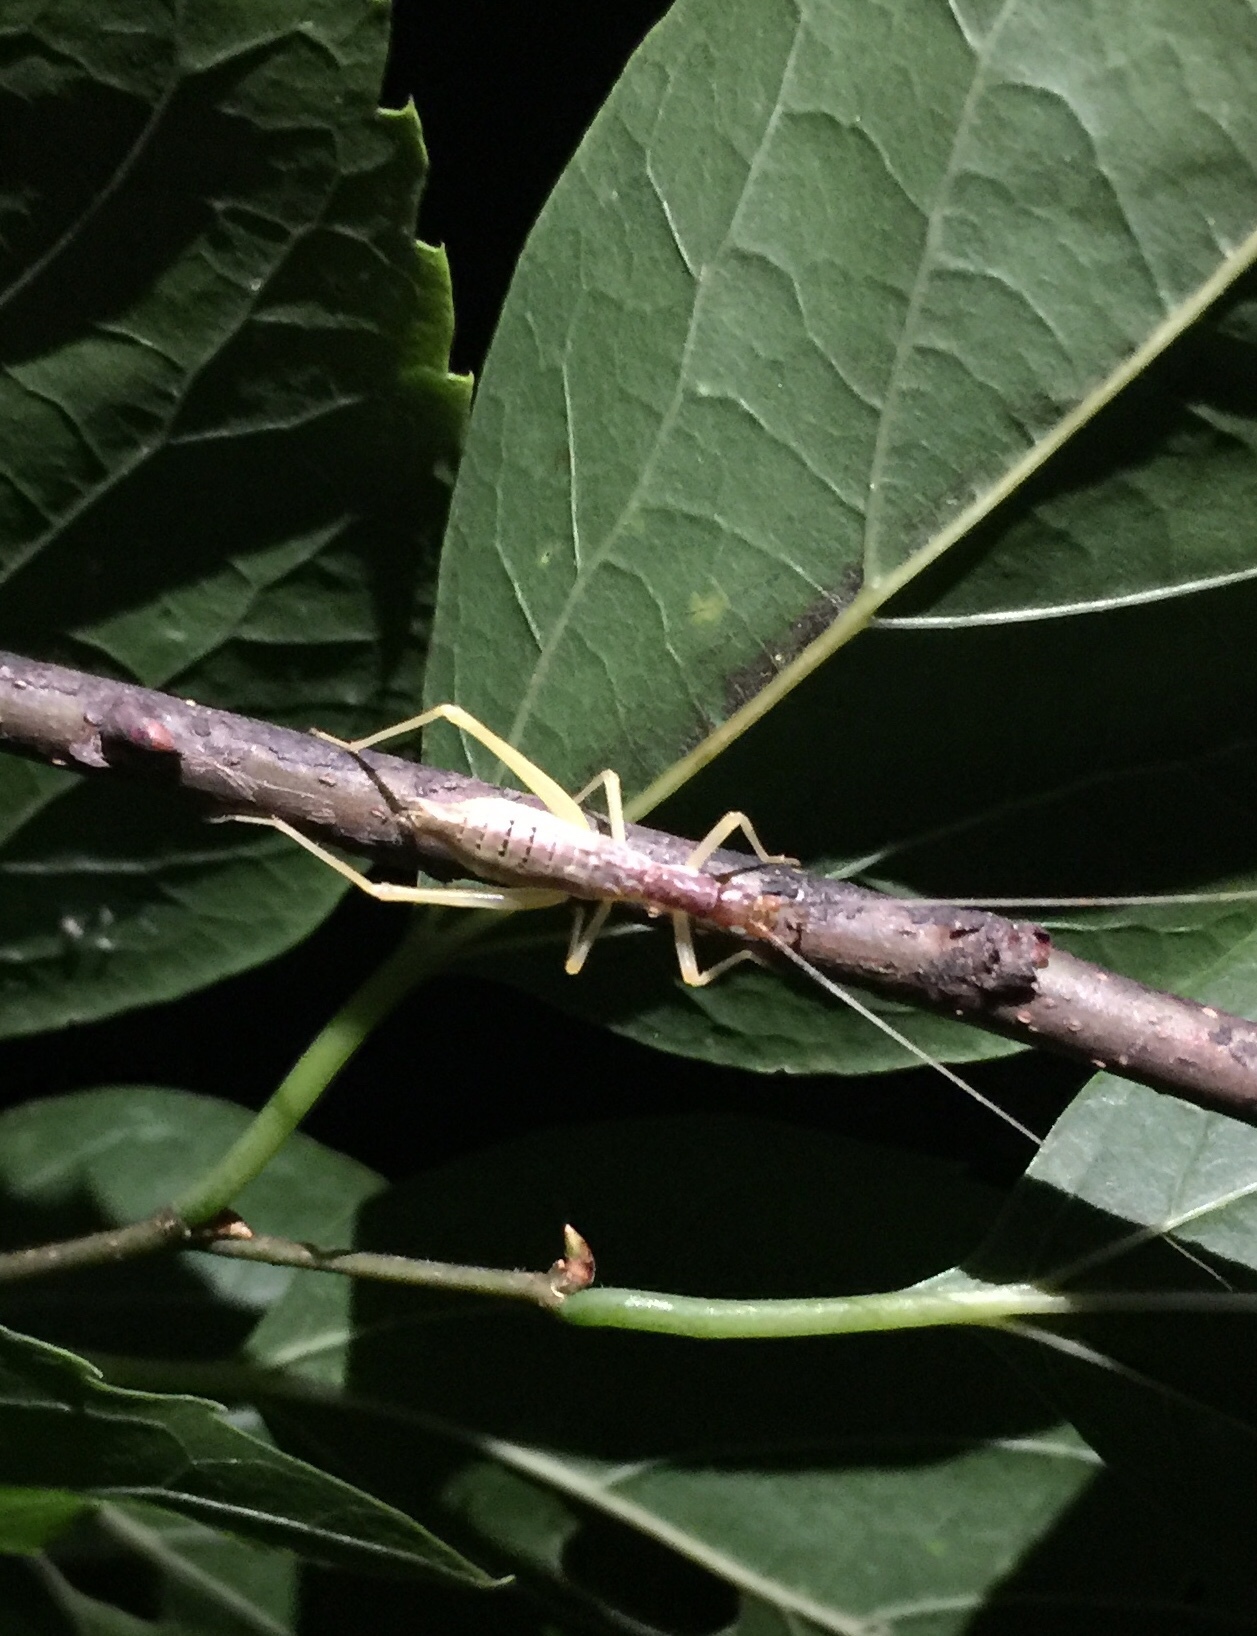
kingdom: Animalia
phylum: Arthropoda
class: Insecta
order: Orthoptera
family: Gryllidae
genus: Neoxabea
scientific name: Neoxabea bipunctata
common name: Two-spotted tree cricket
